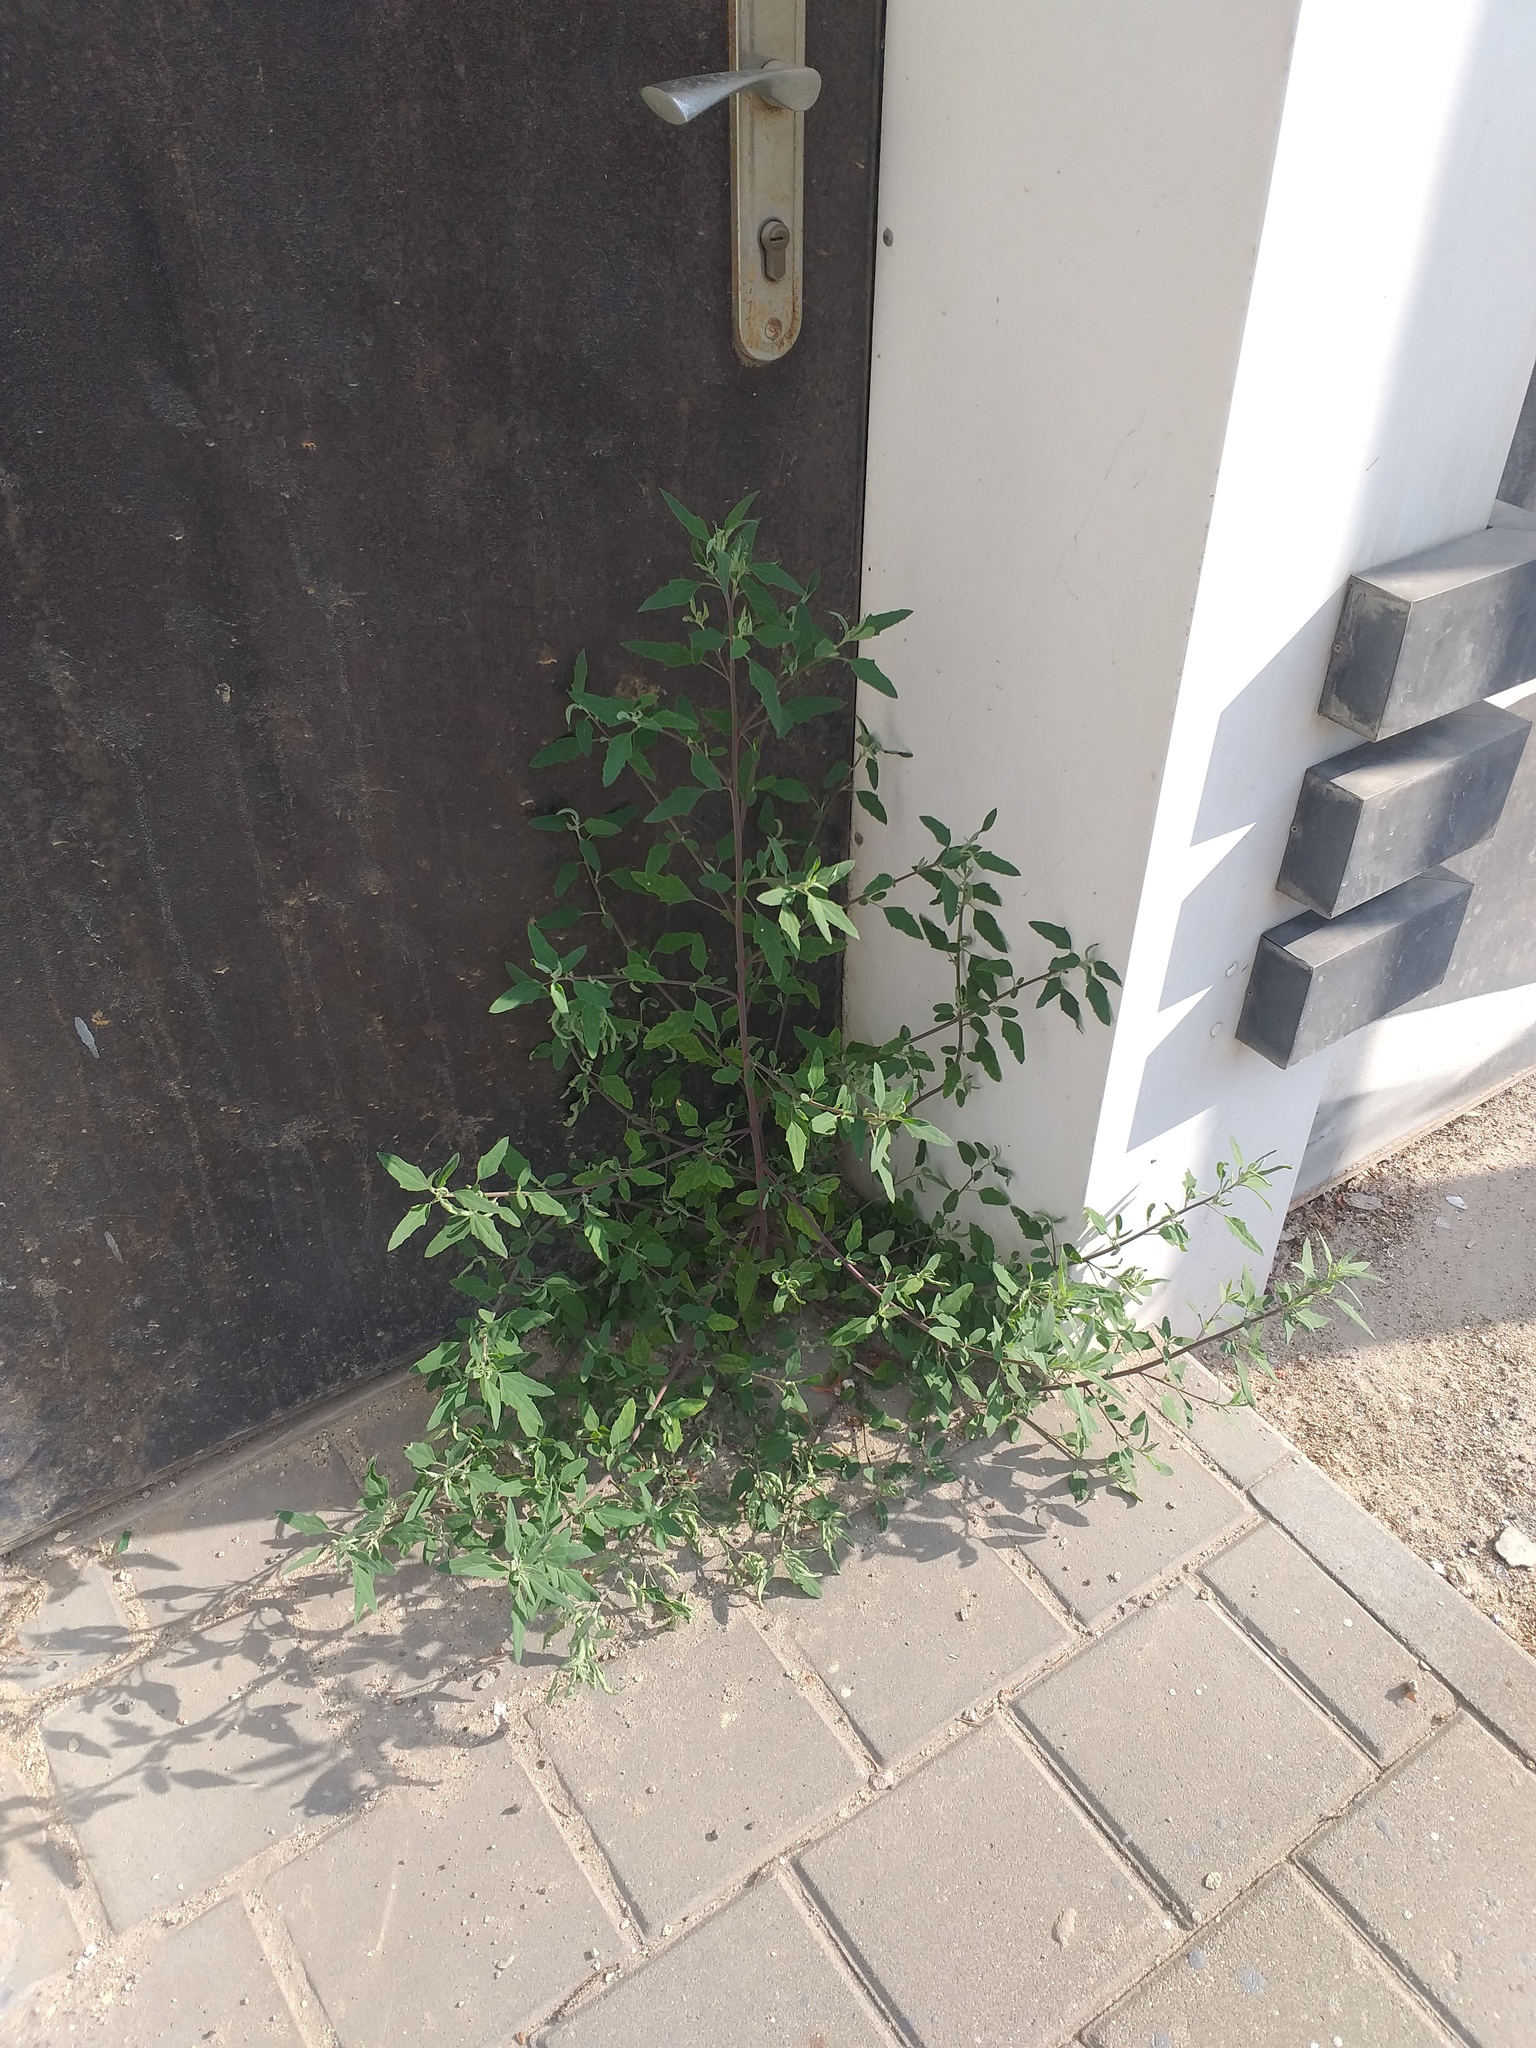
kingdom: Plantae
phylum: Tracheophyta
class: Magnoliopsida
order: Caryophyllales
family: Amaranthaceae
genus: Chenopodium
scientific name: Chenopodium album
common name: Fat-hen
